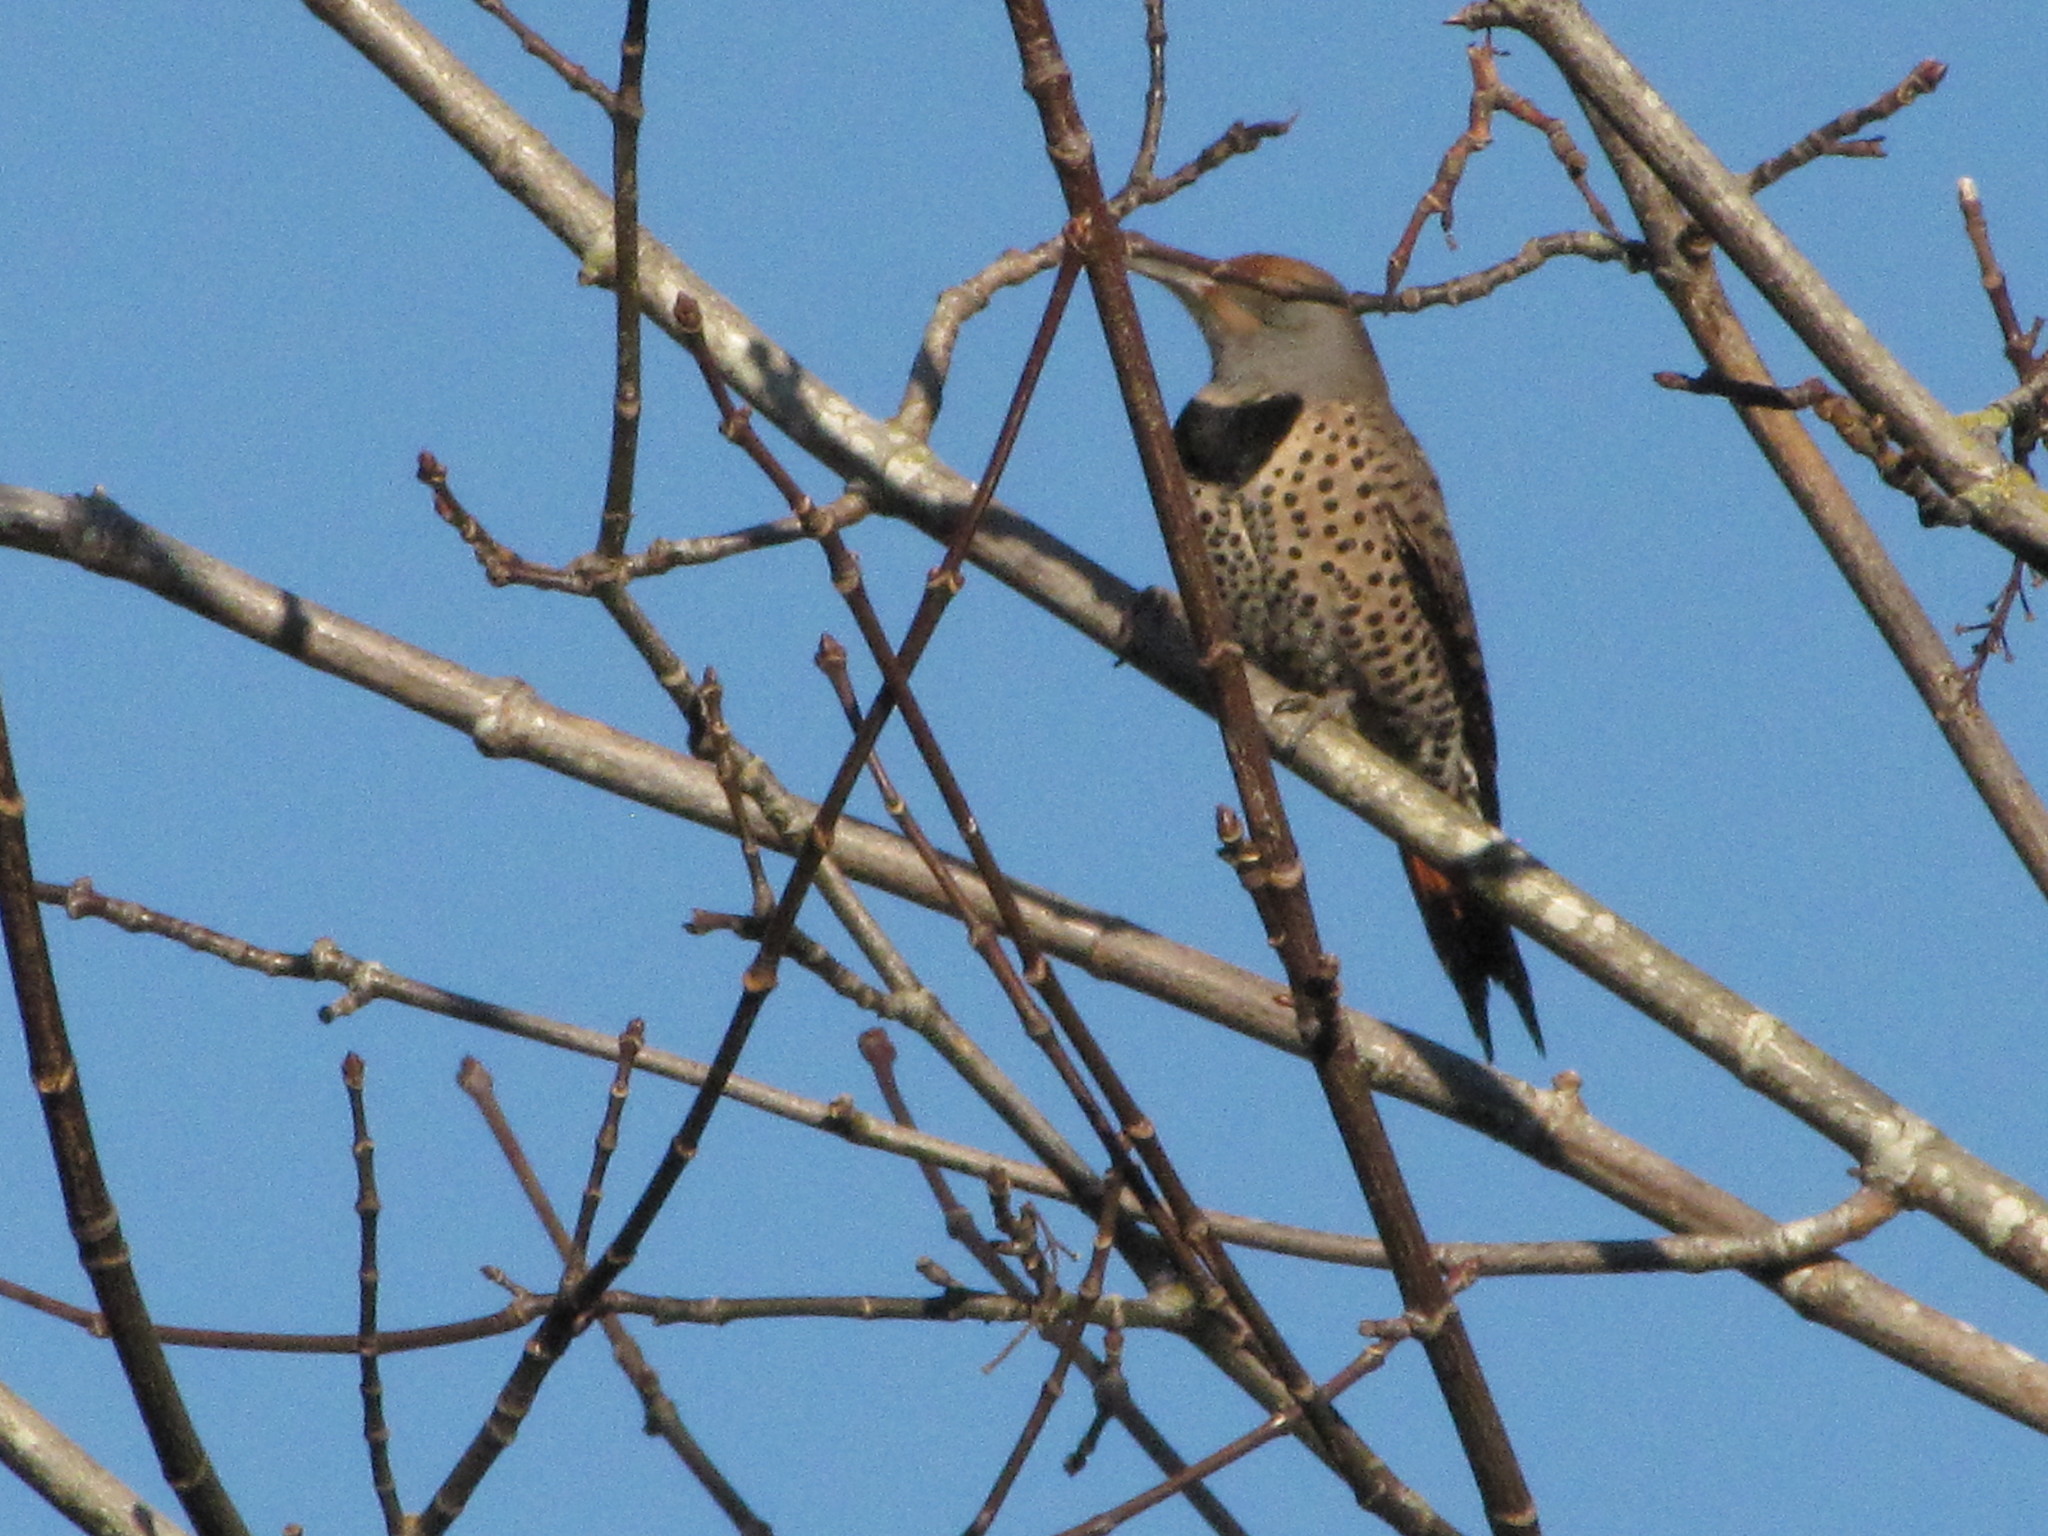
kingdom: Animalia
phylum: Chordata
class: Aves
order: Piciformes
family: Picidae
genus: Colaptes
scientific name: Colaptes auratus
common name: Northern flicker
